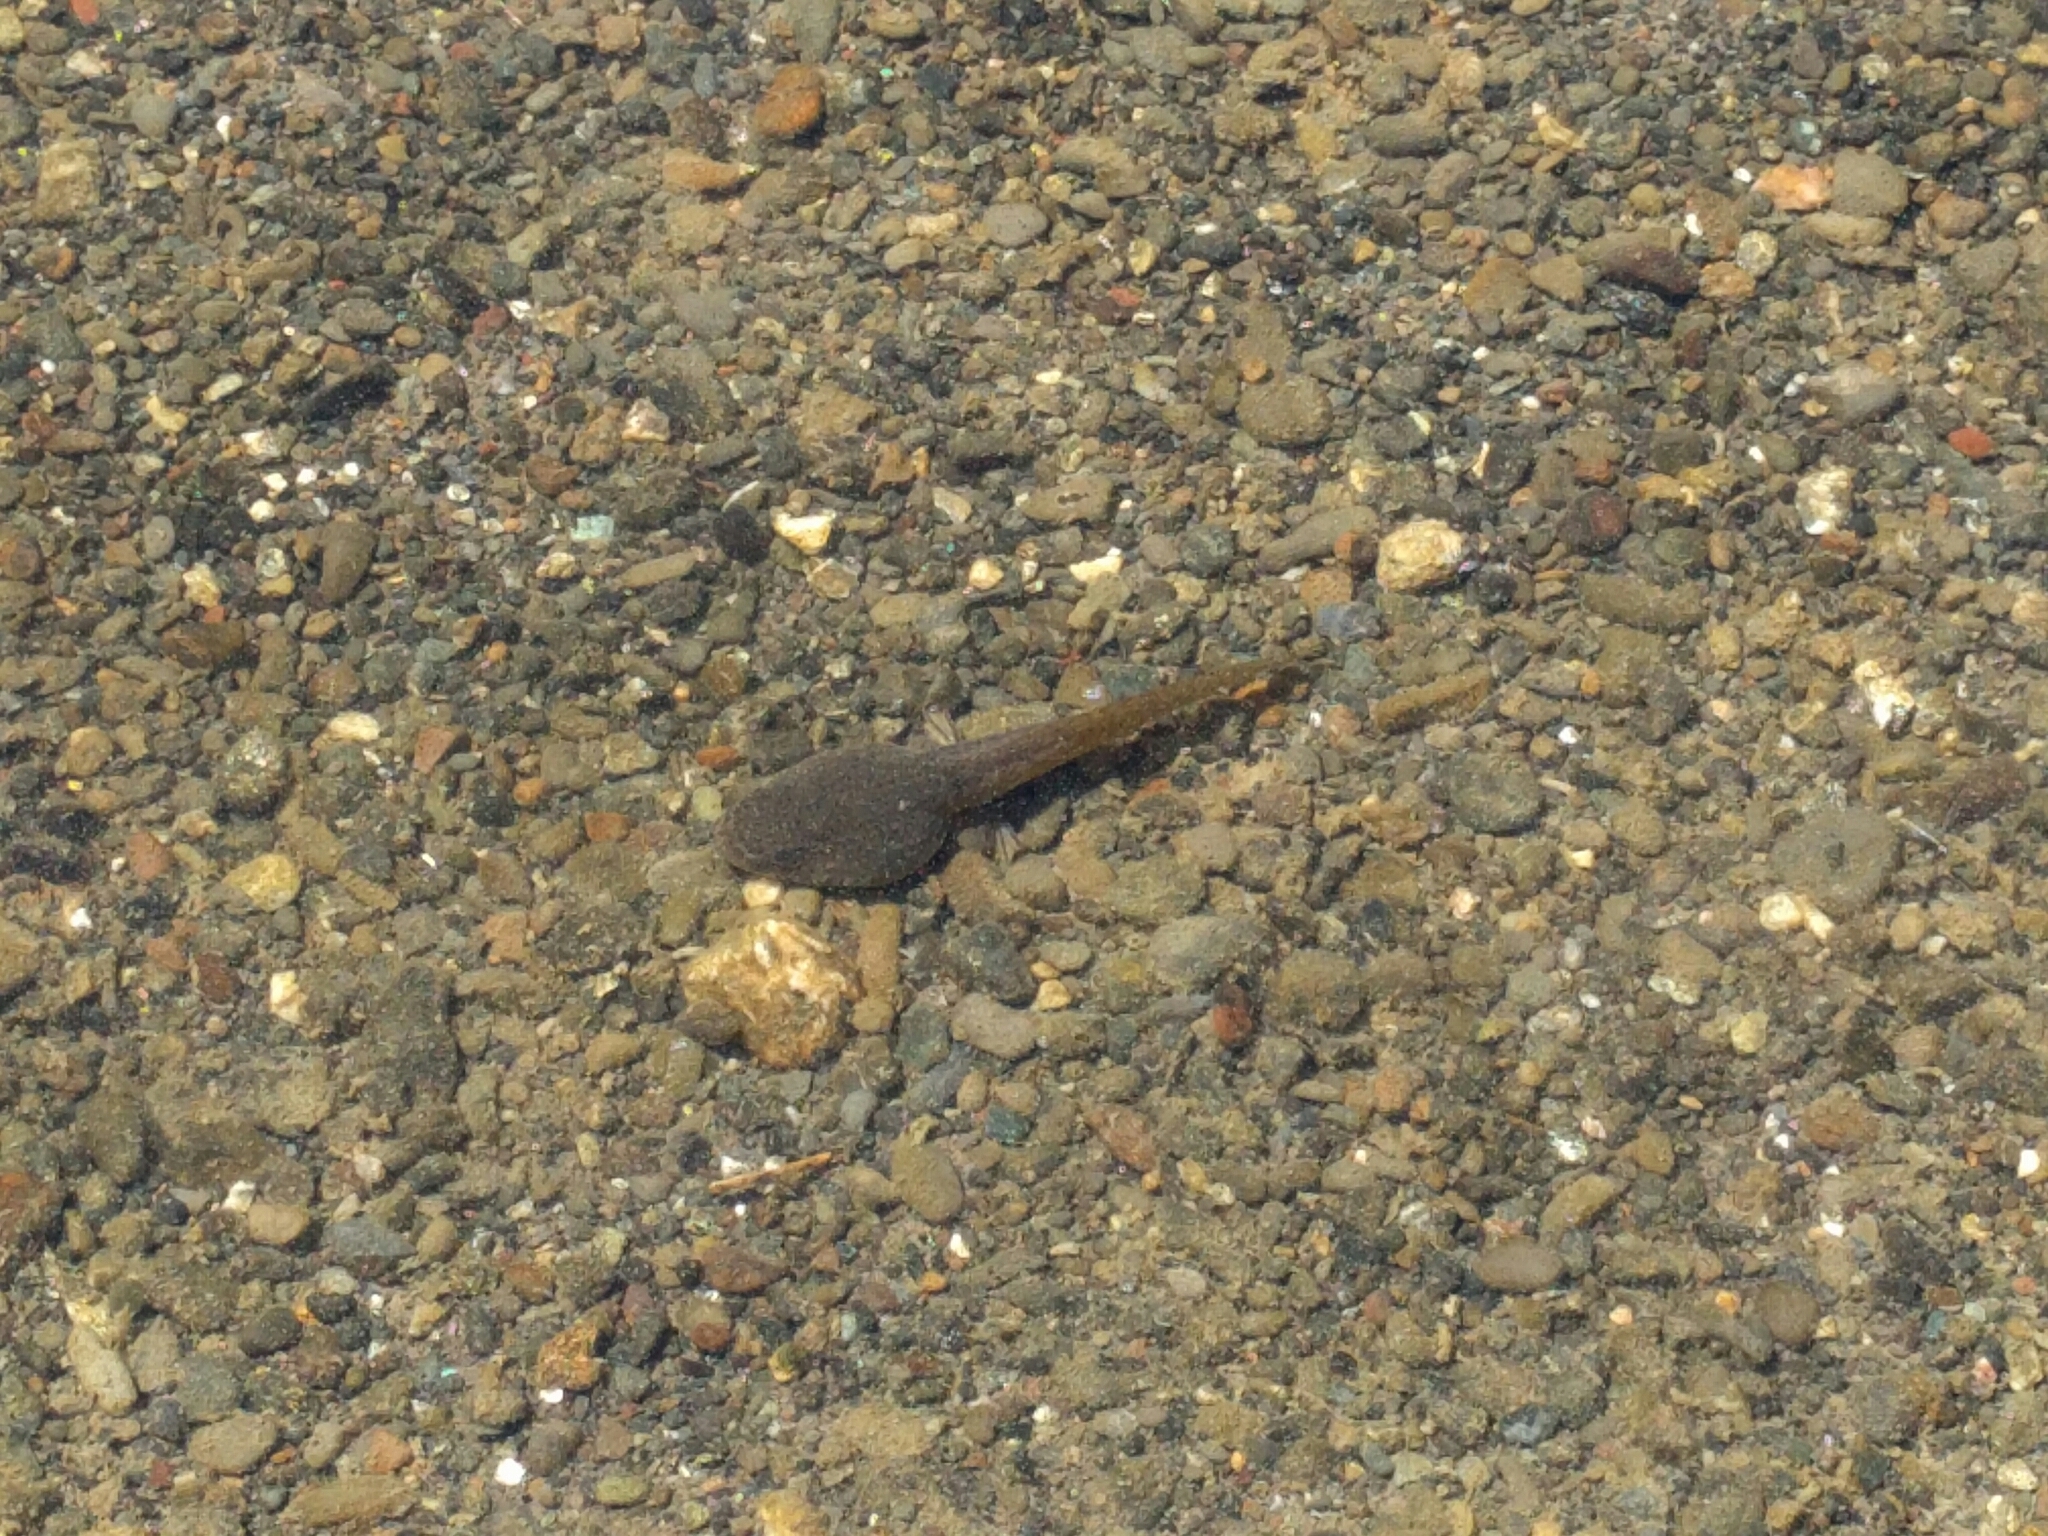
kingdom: Animalia
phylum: Chordata
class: Amphibia
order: Anura
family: Ranidae
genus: Lithobates
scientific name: Lithobates catesbeianus
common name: American bullfrog
